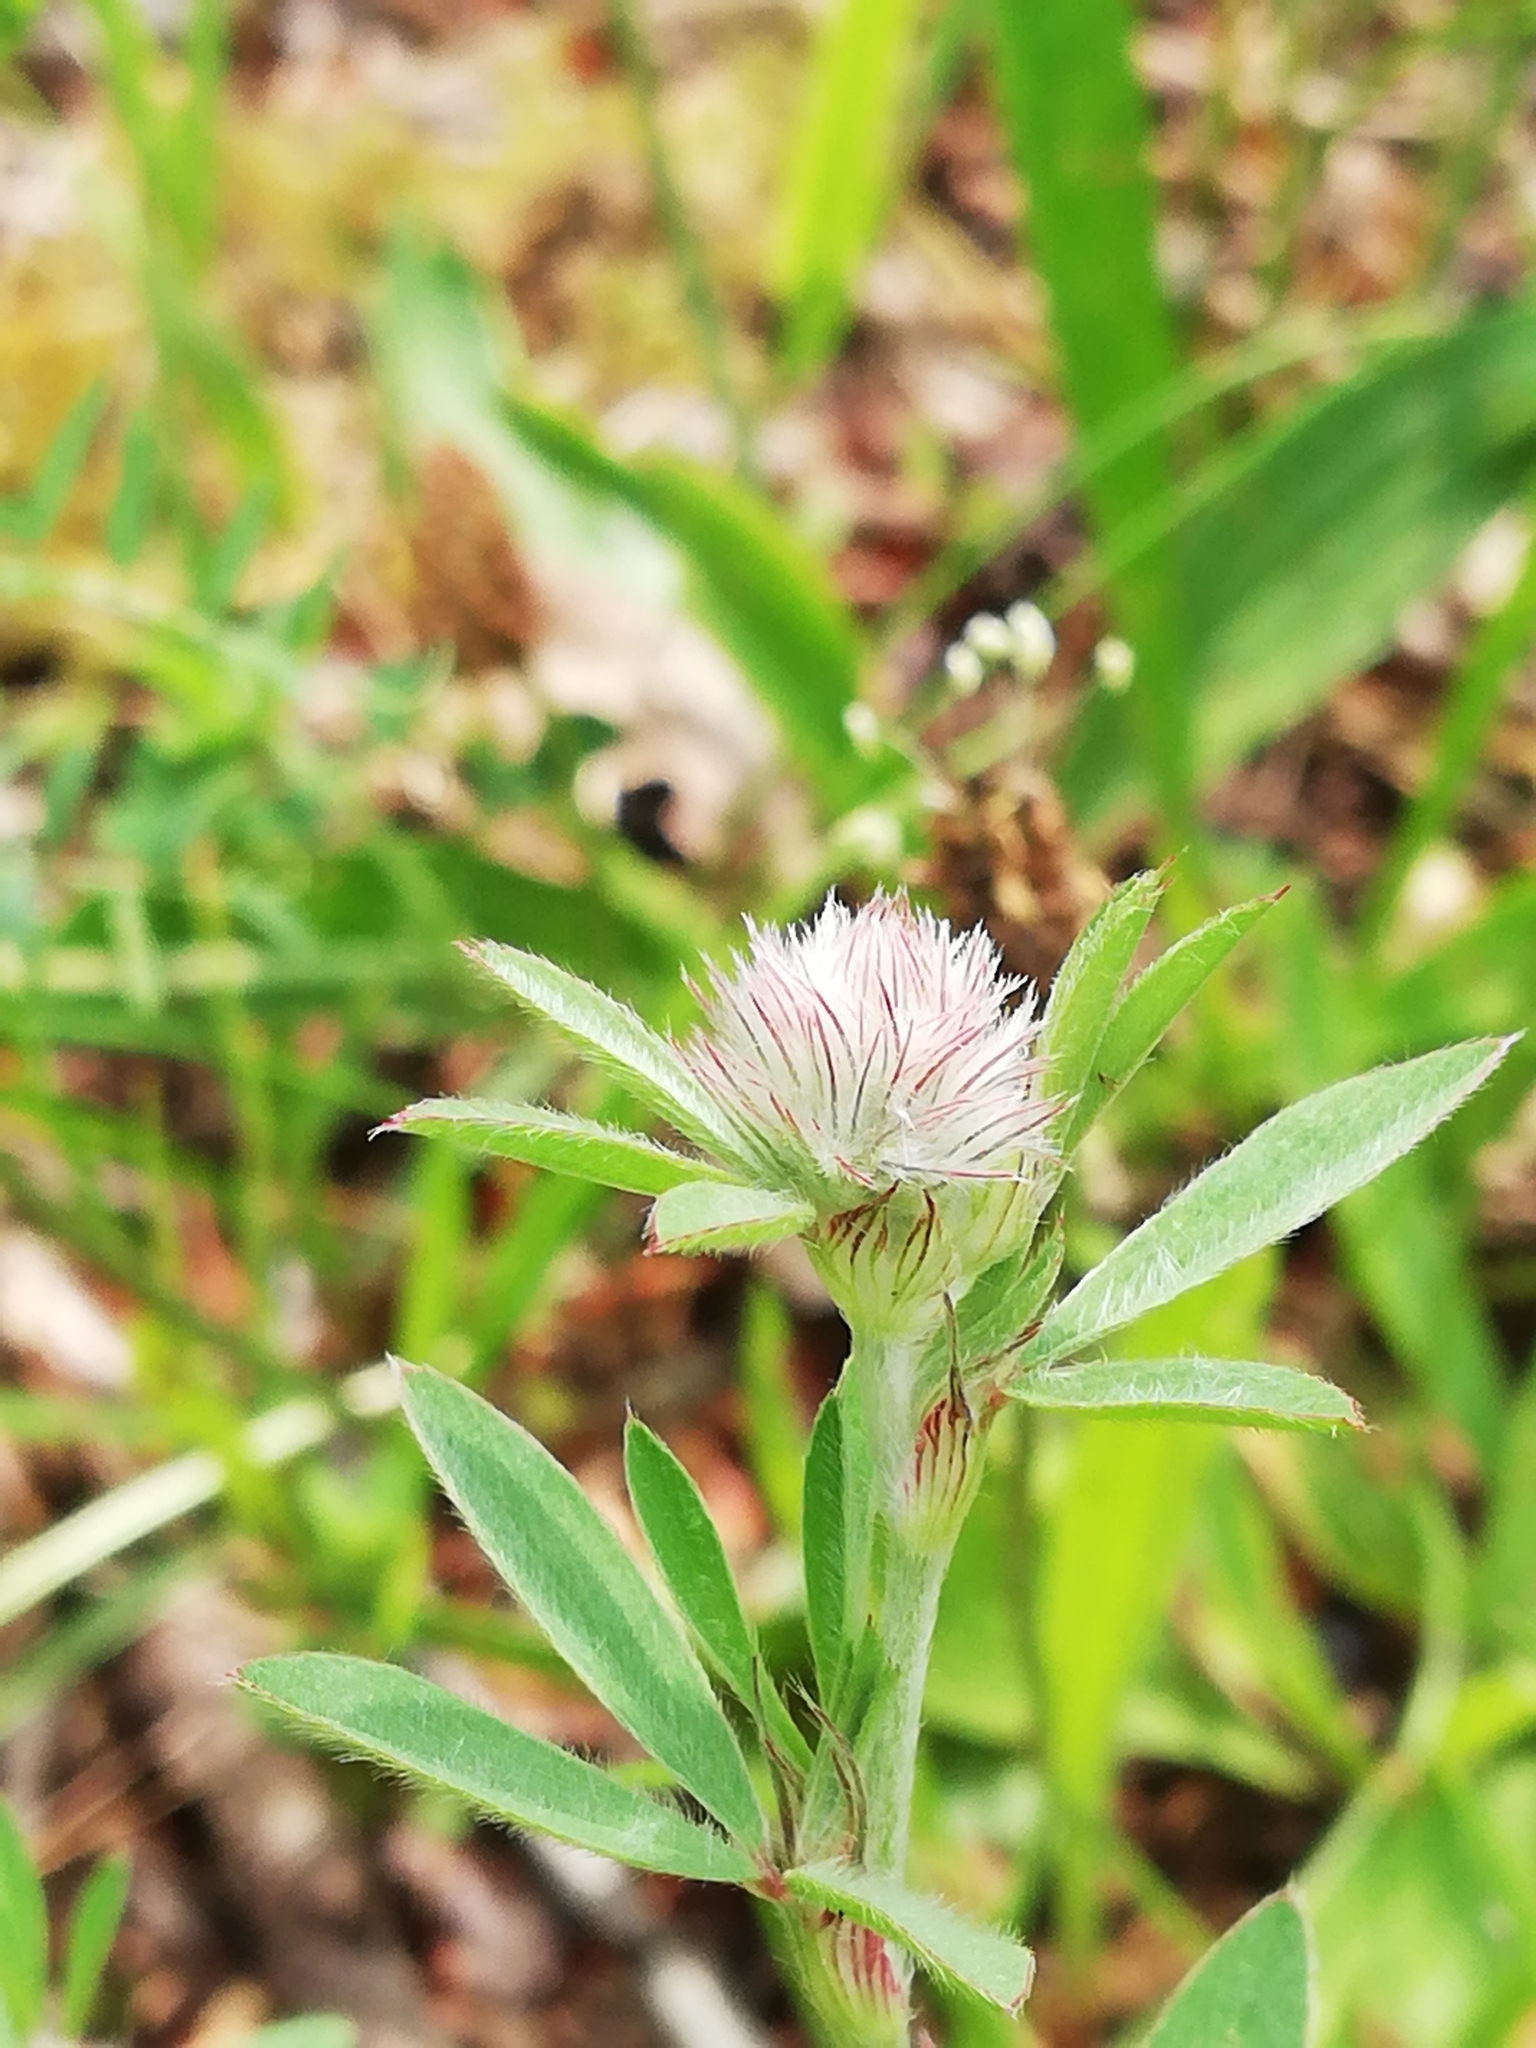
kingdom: Plantae
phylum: Tracheophyta
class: Magnoliopsida
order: Fabales
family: Fabaceae
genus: Trifolium
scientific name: Trifolium arvense
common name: Hare's-foot clover
